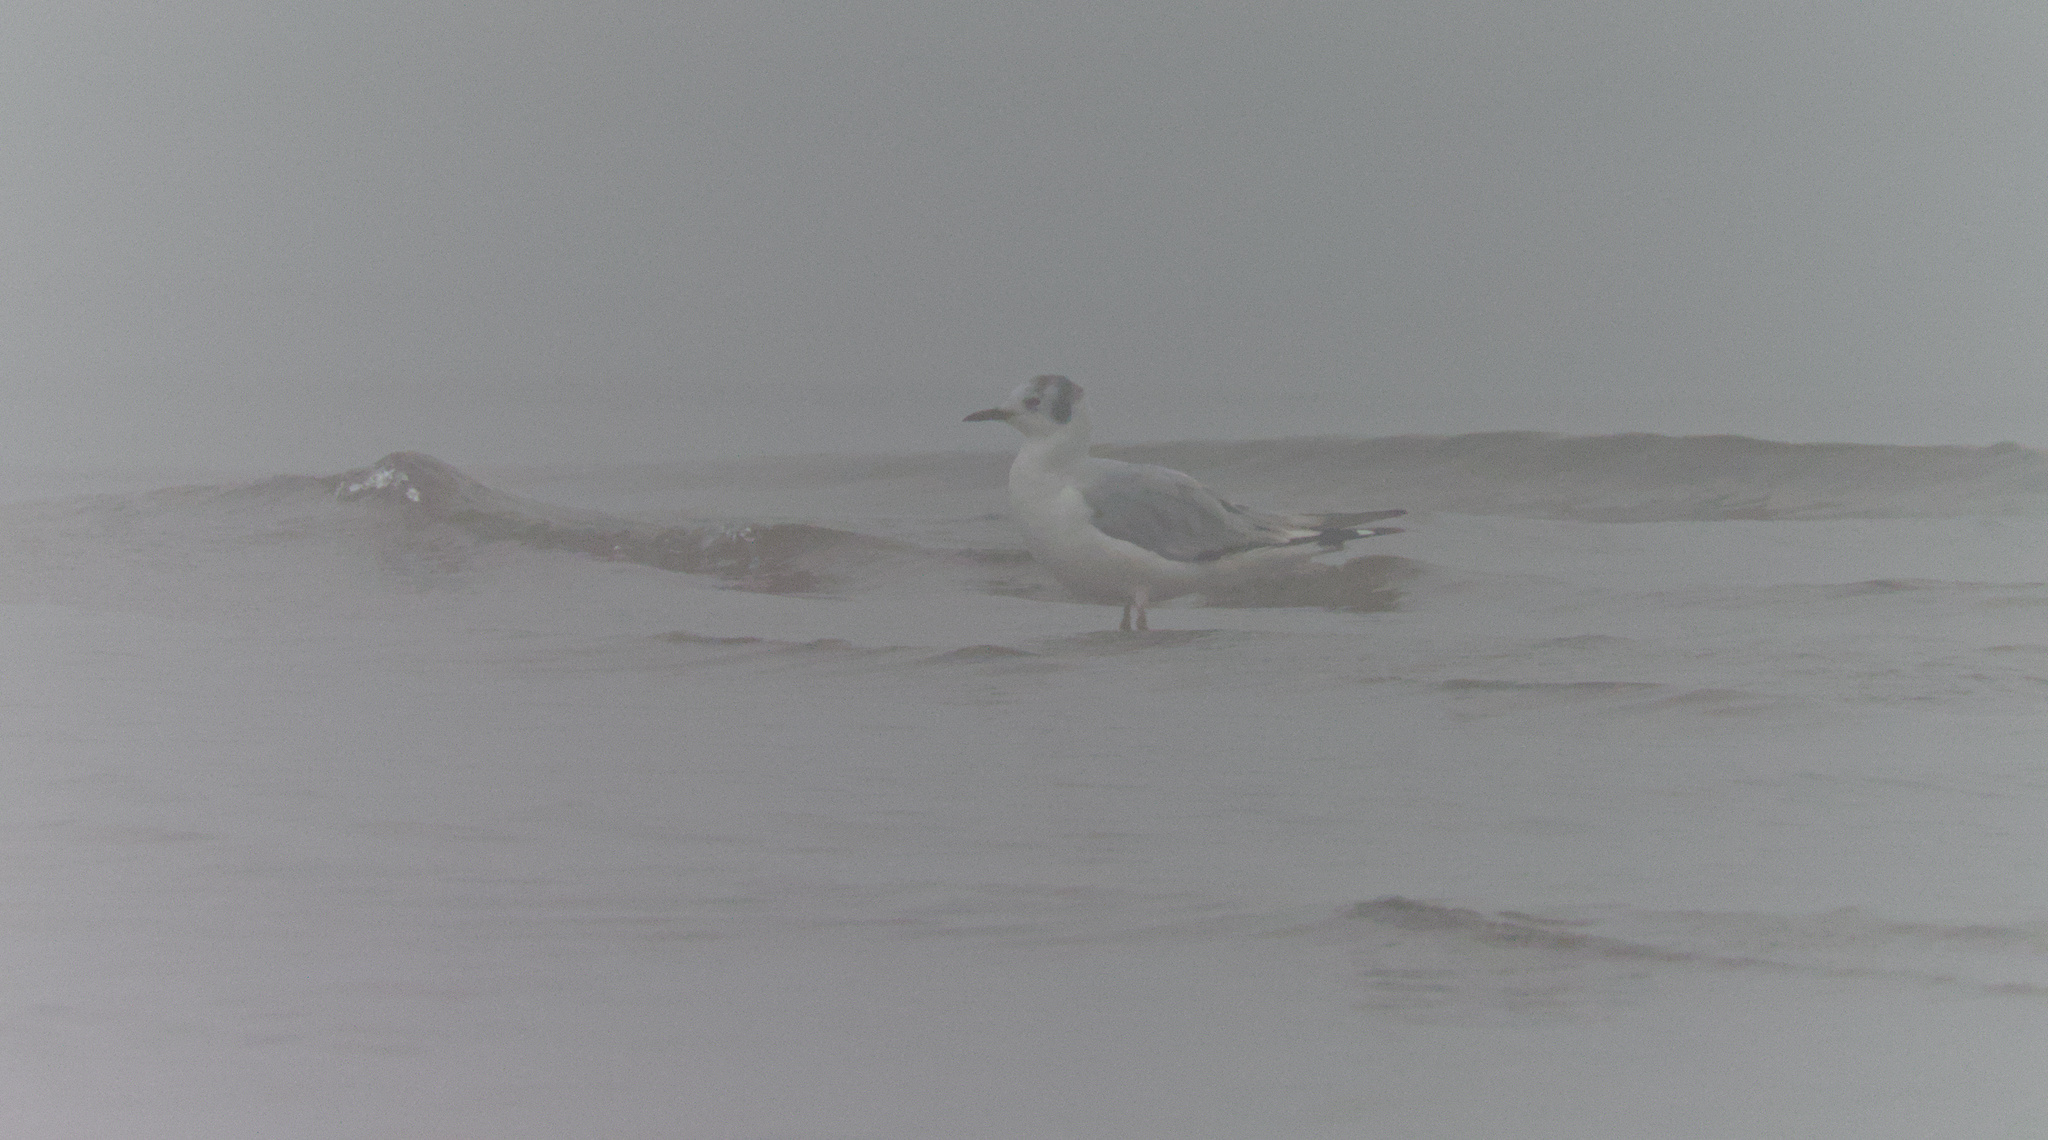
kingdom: Animalia
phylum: Chordata
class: Aves
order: Charadriiformes
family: Laridae
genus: Chroicocephalus
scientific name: Chroicocephalus philadelphia
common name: Bonaparte's gull
